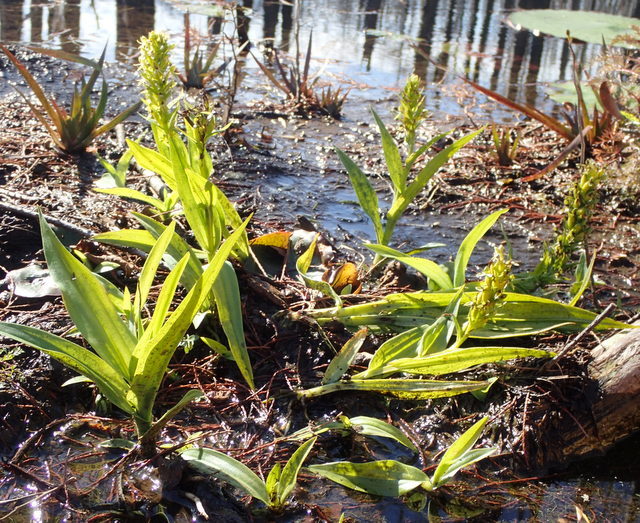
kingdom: Plantae
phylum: Tracheophyta
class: Liliopsida
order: Asparagales
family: Orchidaceae
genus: Habenaria
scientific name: Habenaria repens
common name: Water orchid
